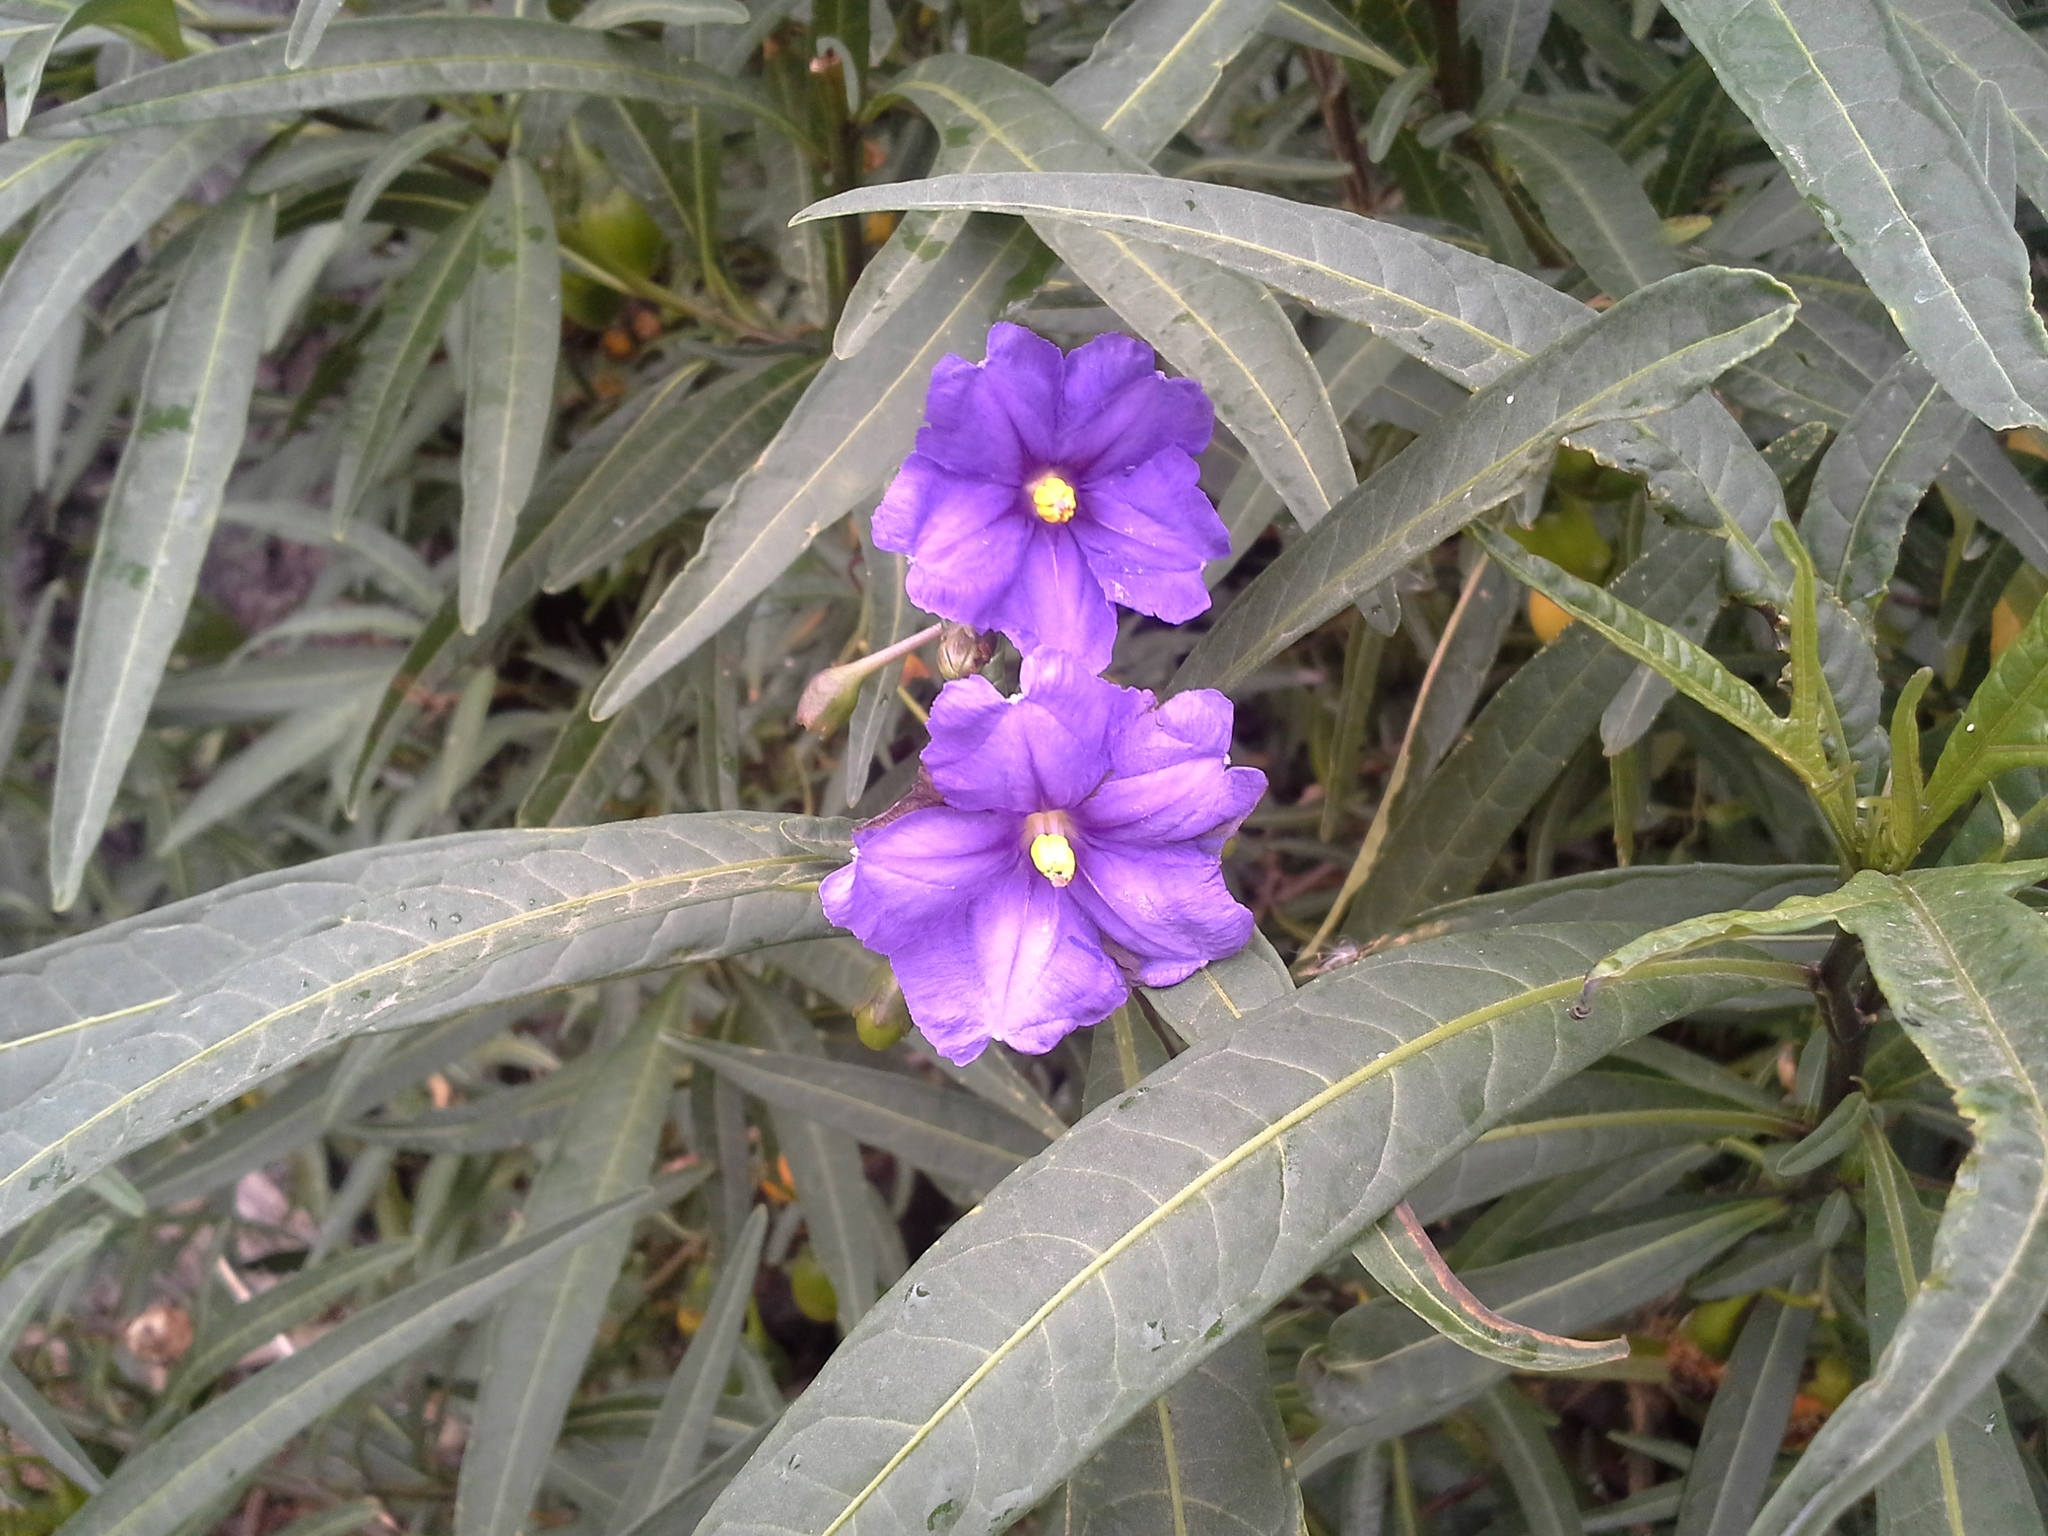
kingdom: Plantae
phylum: Tracheophyta
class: Magnoliopsida
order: Solanales
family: Solanaceae
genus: Solanum
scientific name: Solanum laciniatum
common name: Kangaroo-apple
